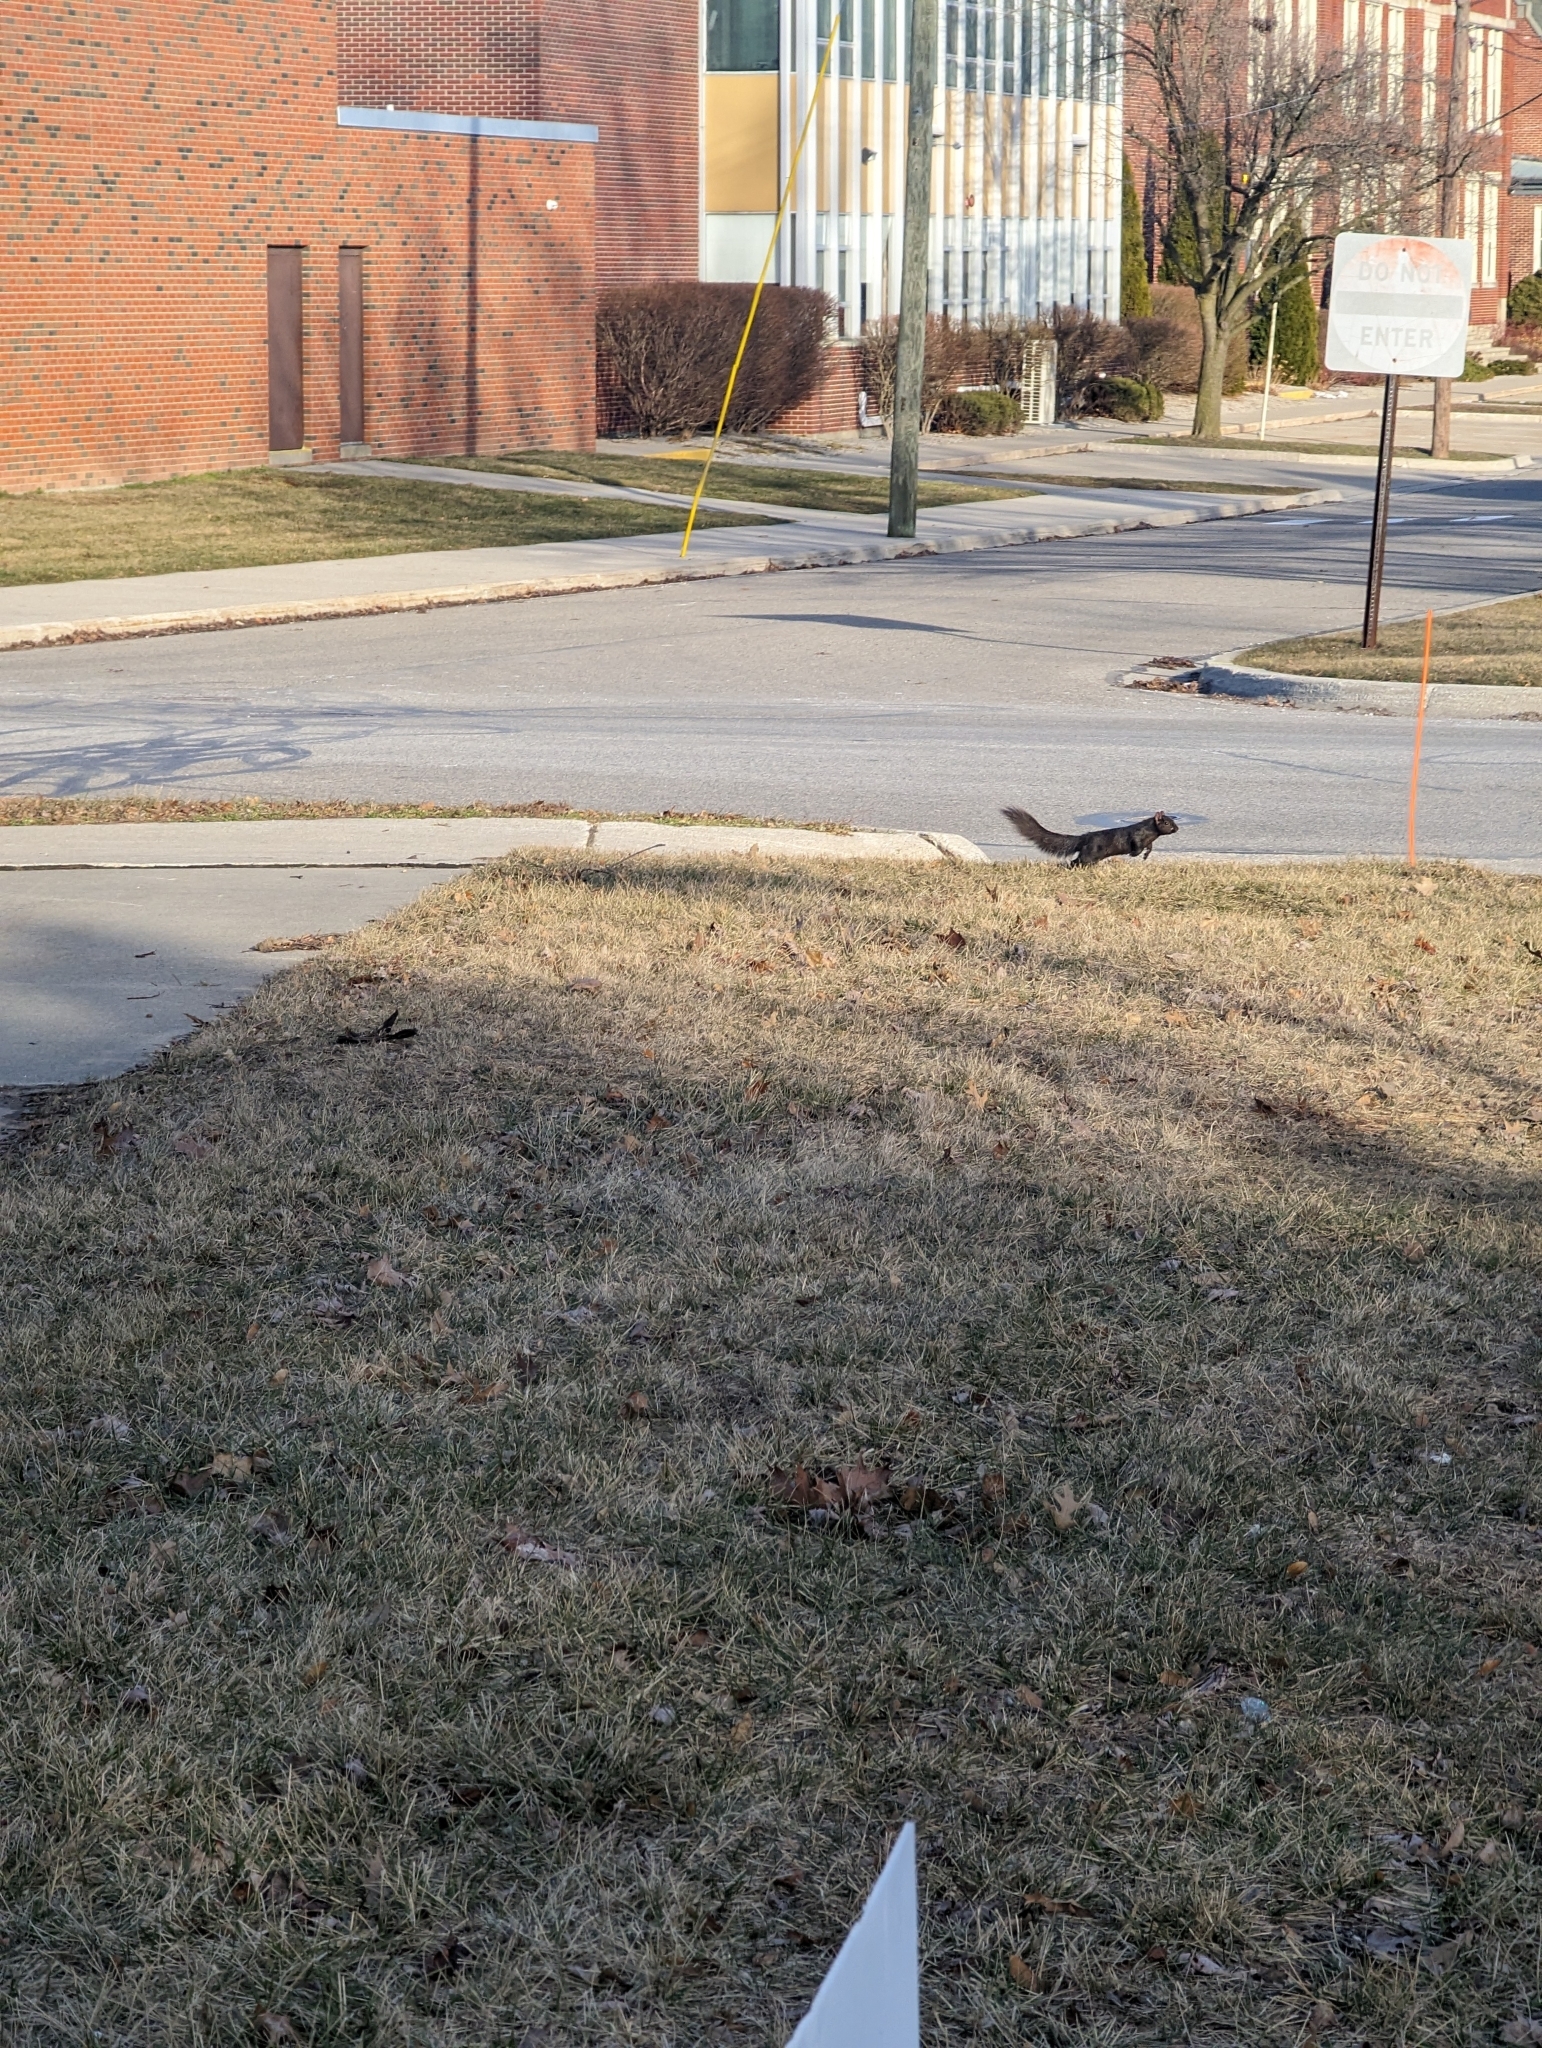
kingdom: Animalia
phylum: Chordata
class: Mammalia
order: Rodentia
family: Sciuridae
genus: Sciurus
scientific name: Sciurus carolinensis
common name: Eastern gray squirrel
